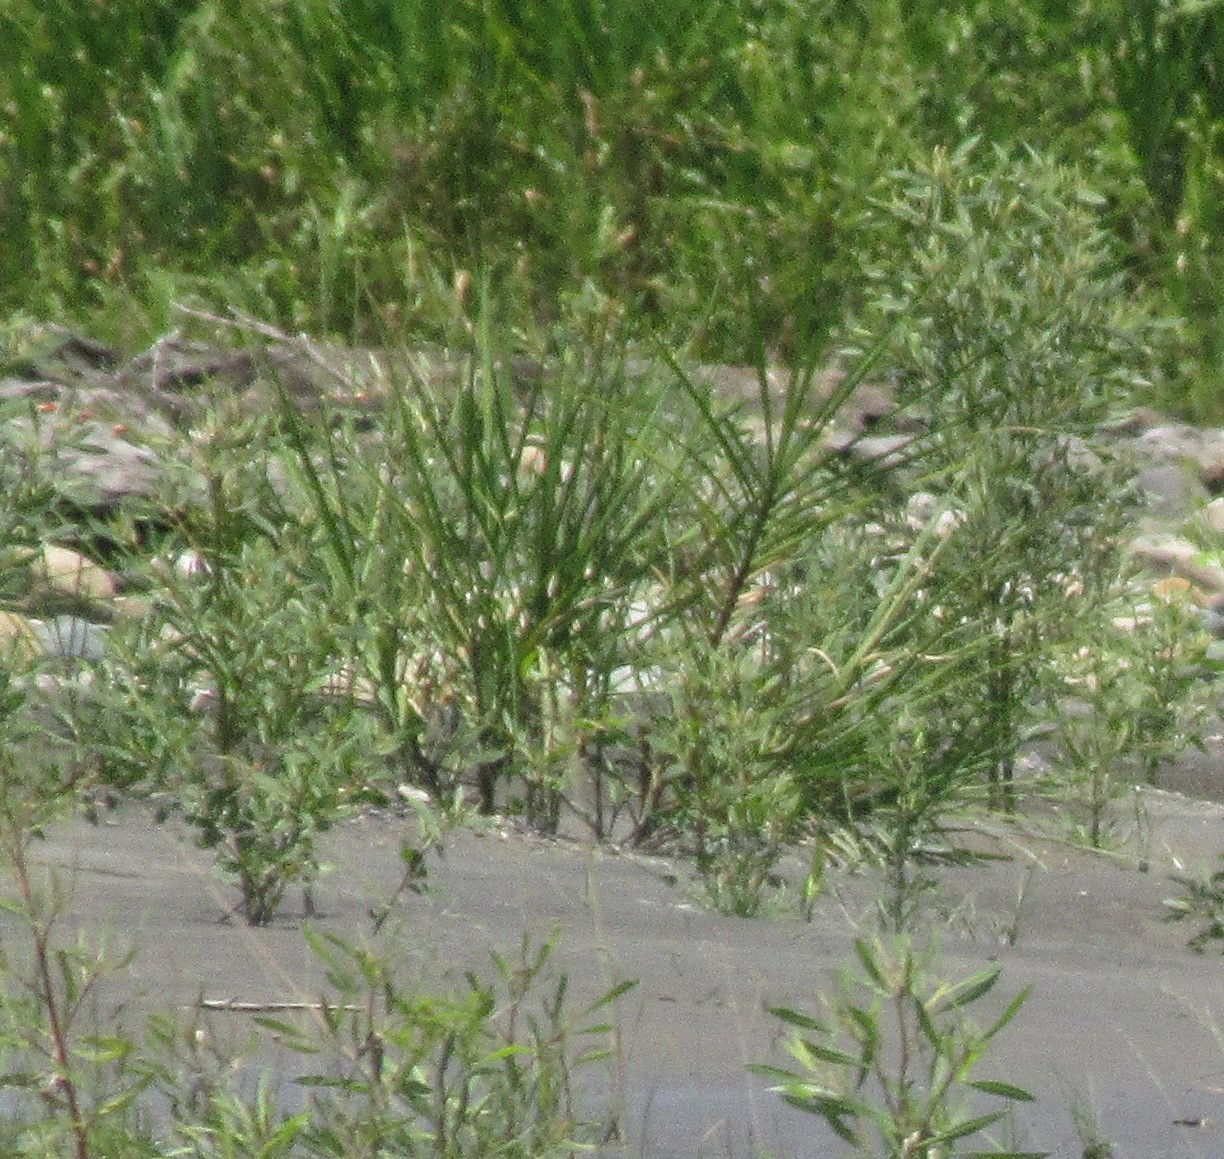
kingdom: Plantae
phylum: Tracheophyta
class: Liliopsida
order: Poales
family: Poaceae
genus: Gynerium
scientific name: Gynerium sagittatum
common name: Wild cane
